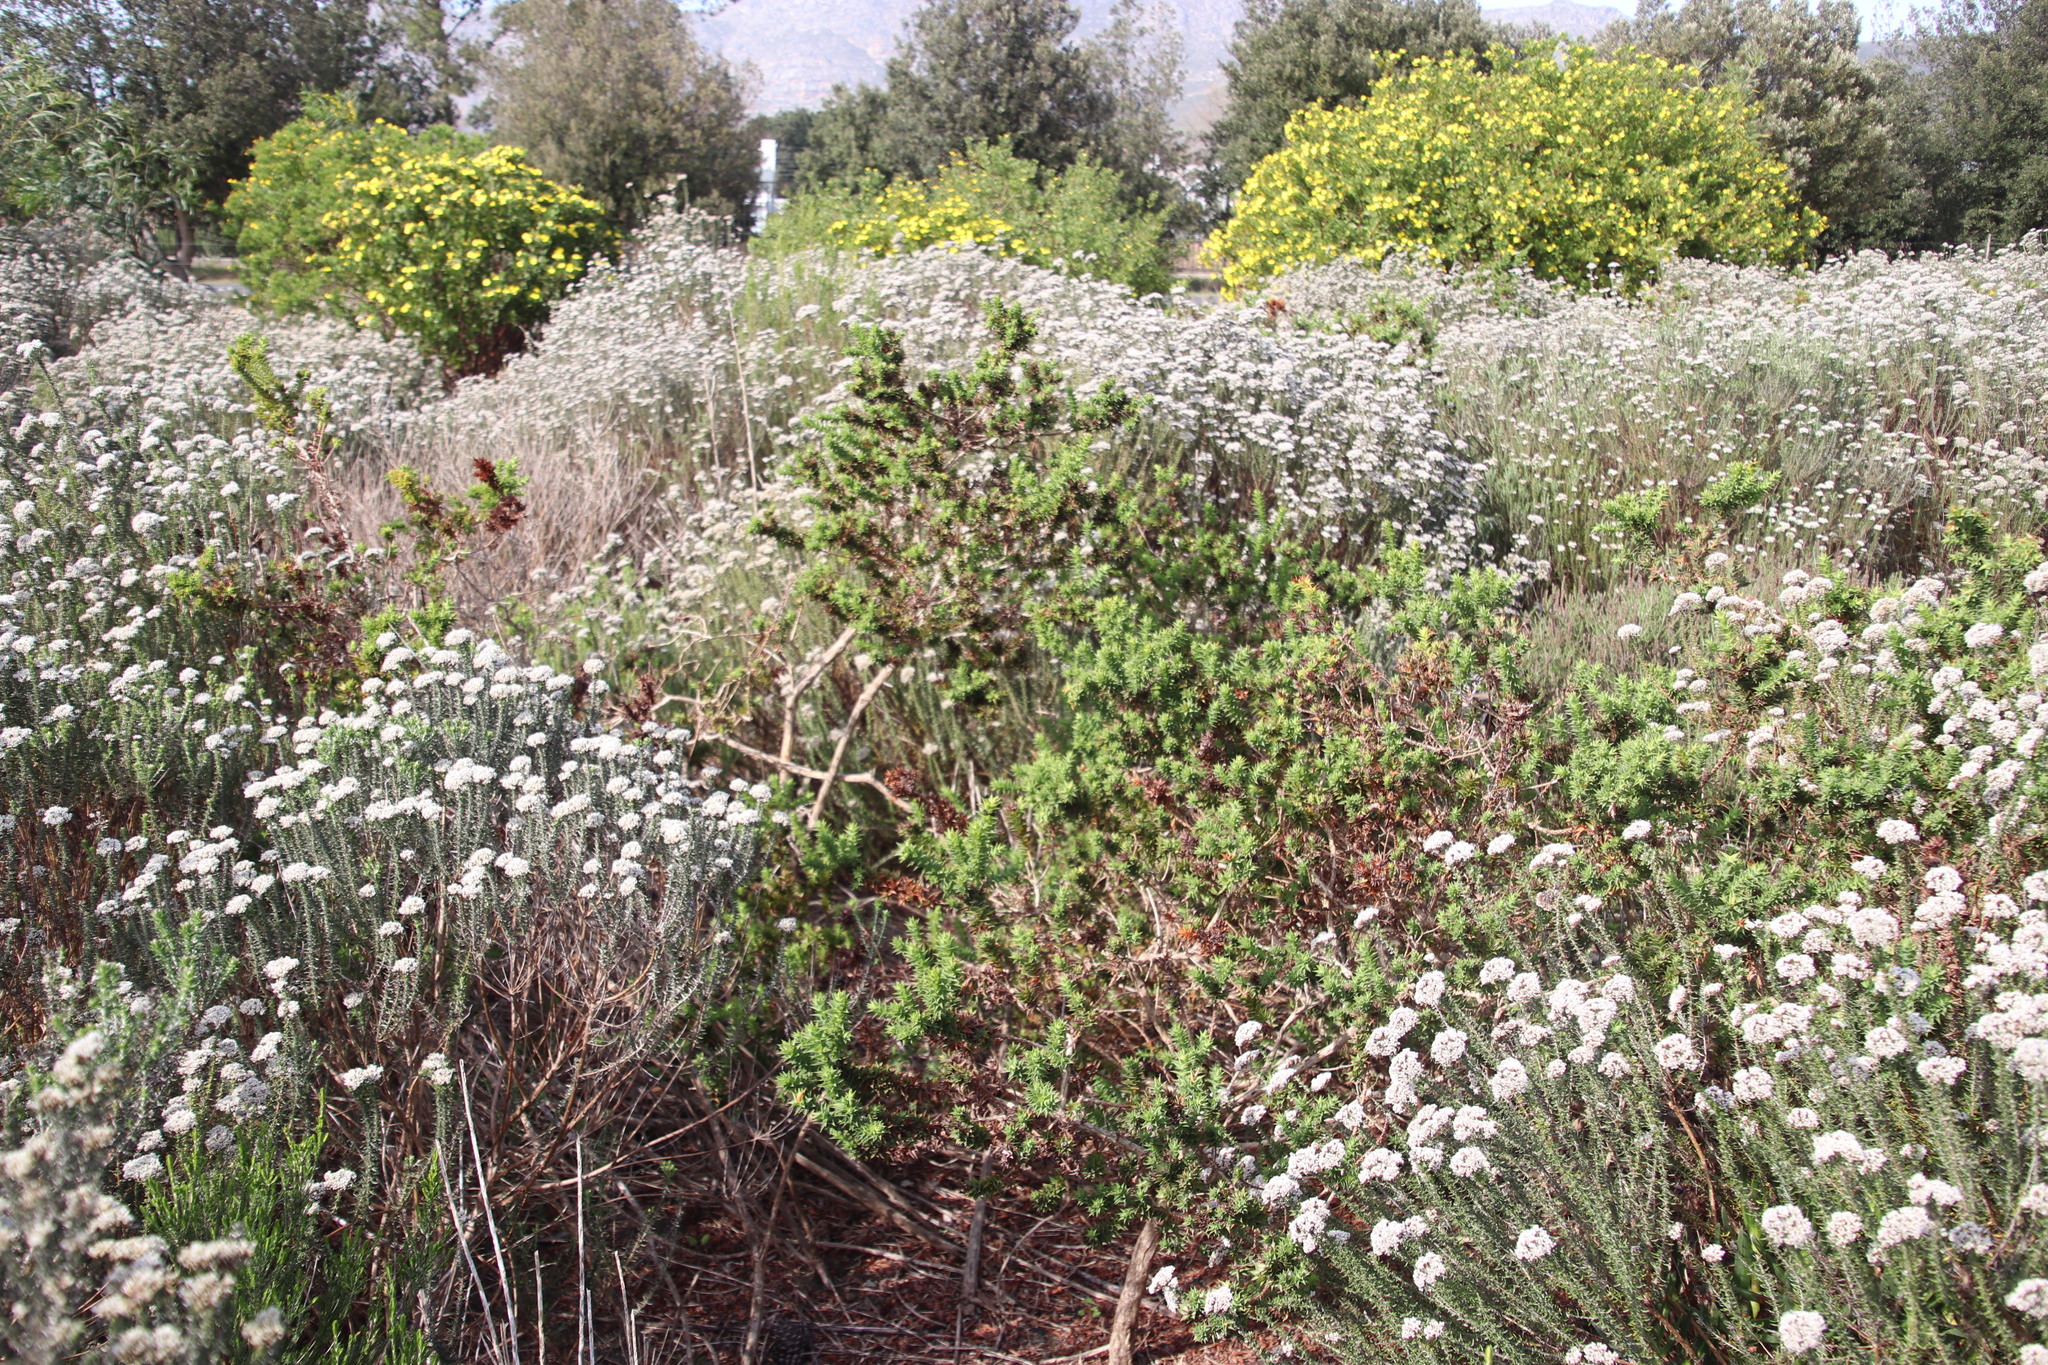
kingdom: Plantae
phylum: Tracheophyta
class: Magnoliopsida
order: Fabales
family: Fabaceae
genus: Aspalathus
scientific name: Aspalathus cordata
